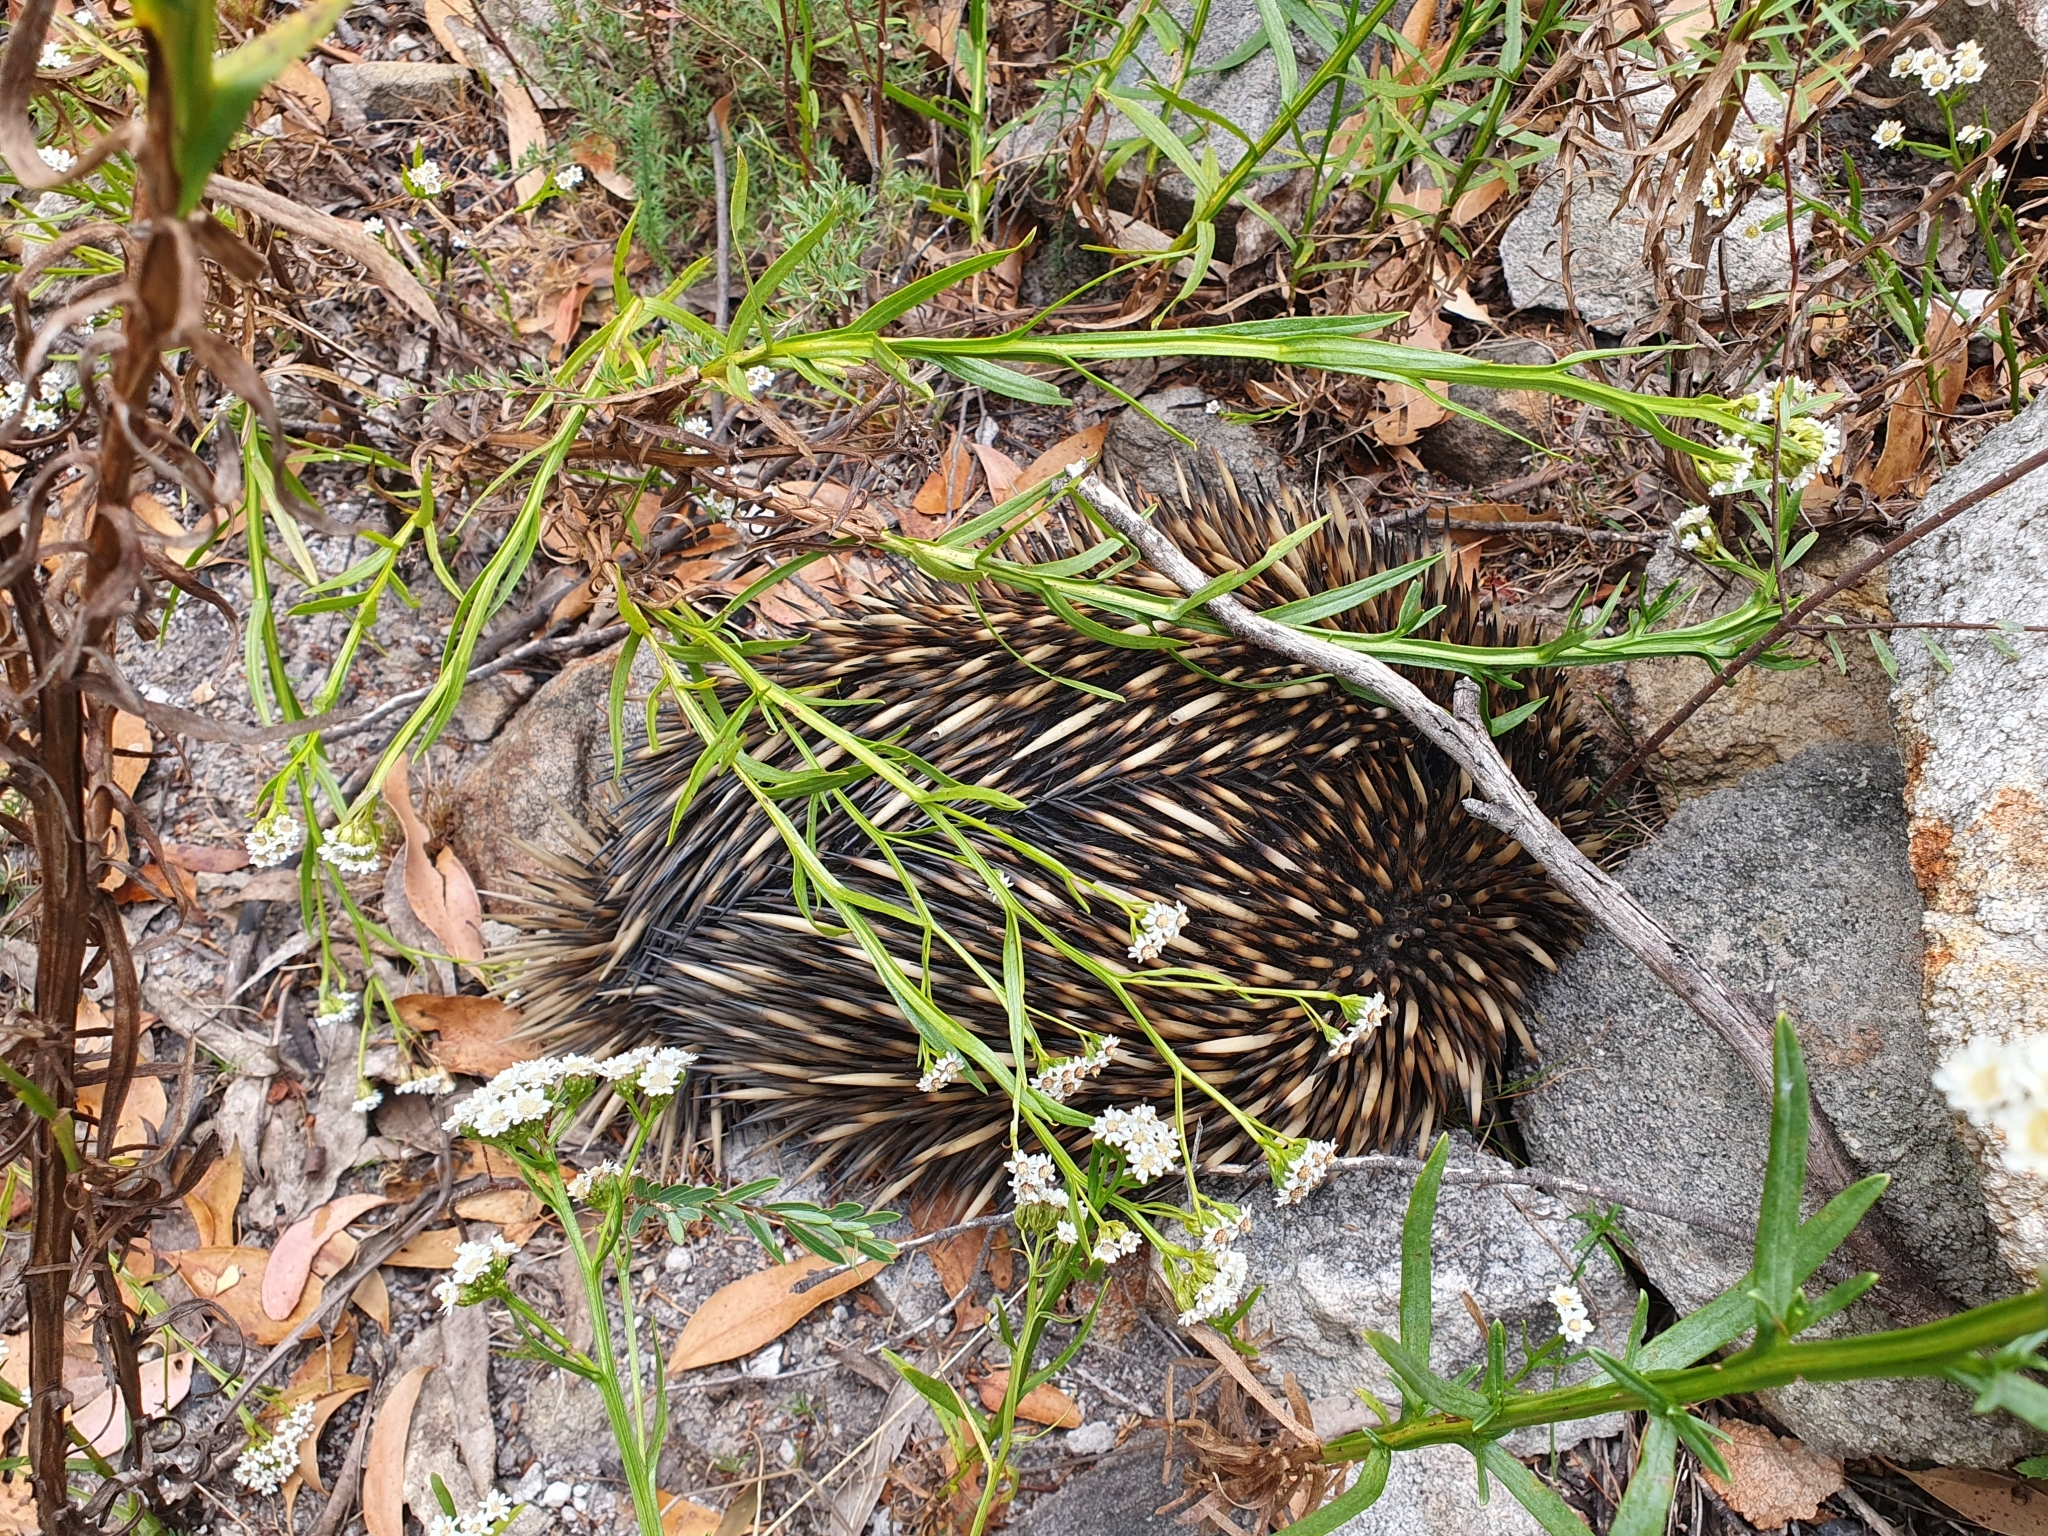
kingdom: Animalia
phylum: Chordata
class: Mammalia
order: Monotremata
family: Tachyglossidae
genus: Tachyglossus
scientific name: Tachyglossus aculeatus
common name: Short-beaked echidna
